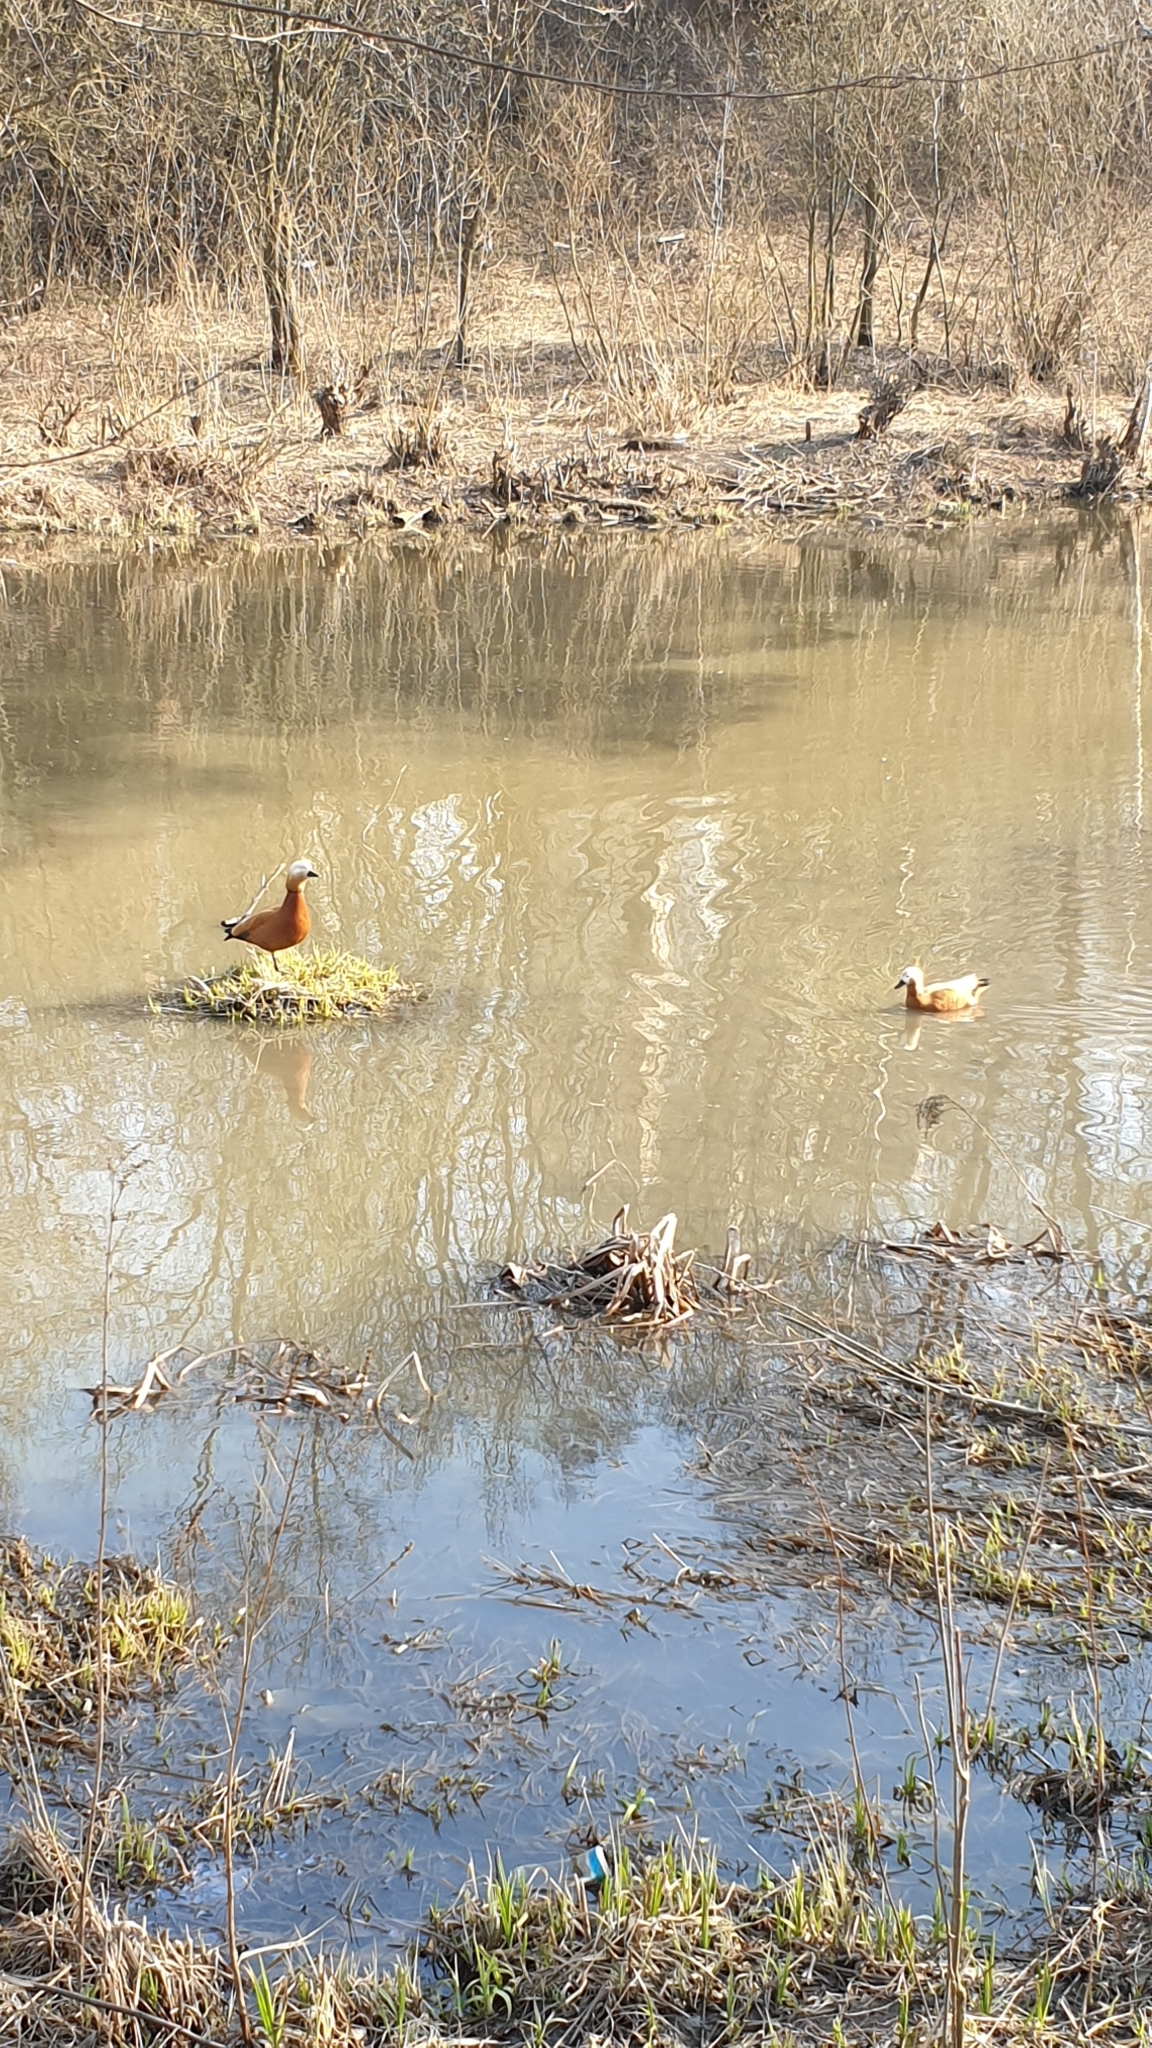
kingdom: Animalia
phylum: Chordata
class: Aves
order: Anseriformes
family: Anatidae
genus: Tadorna
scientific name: Tadorna ferruginea
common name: Ruddy shelduck
